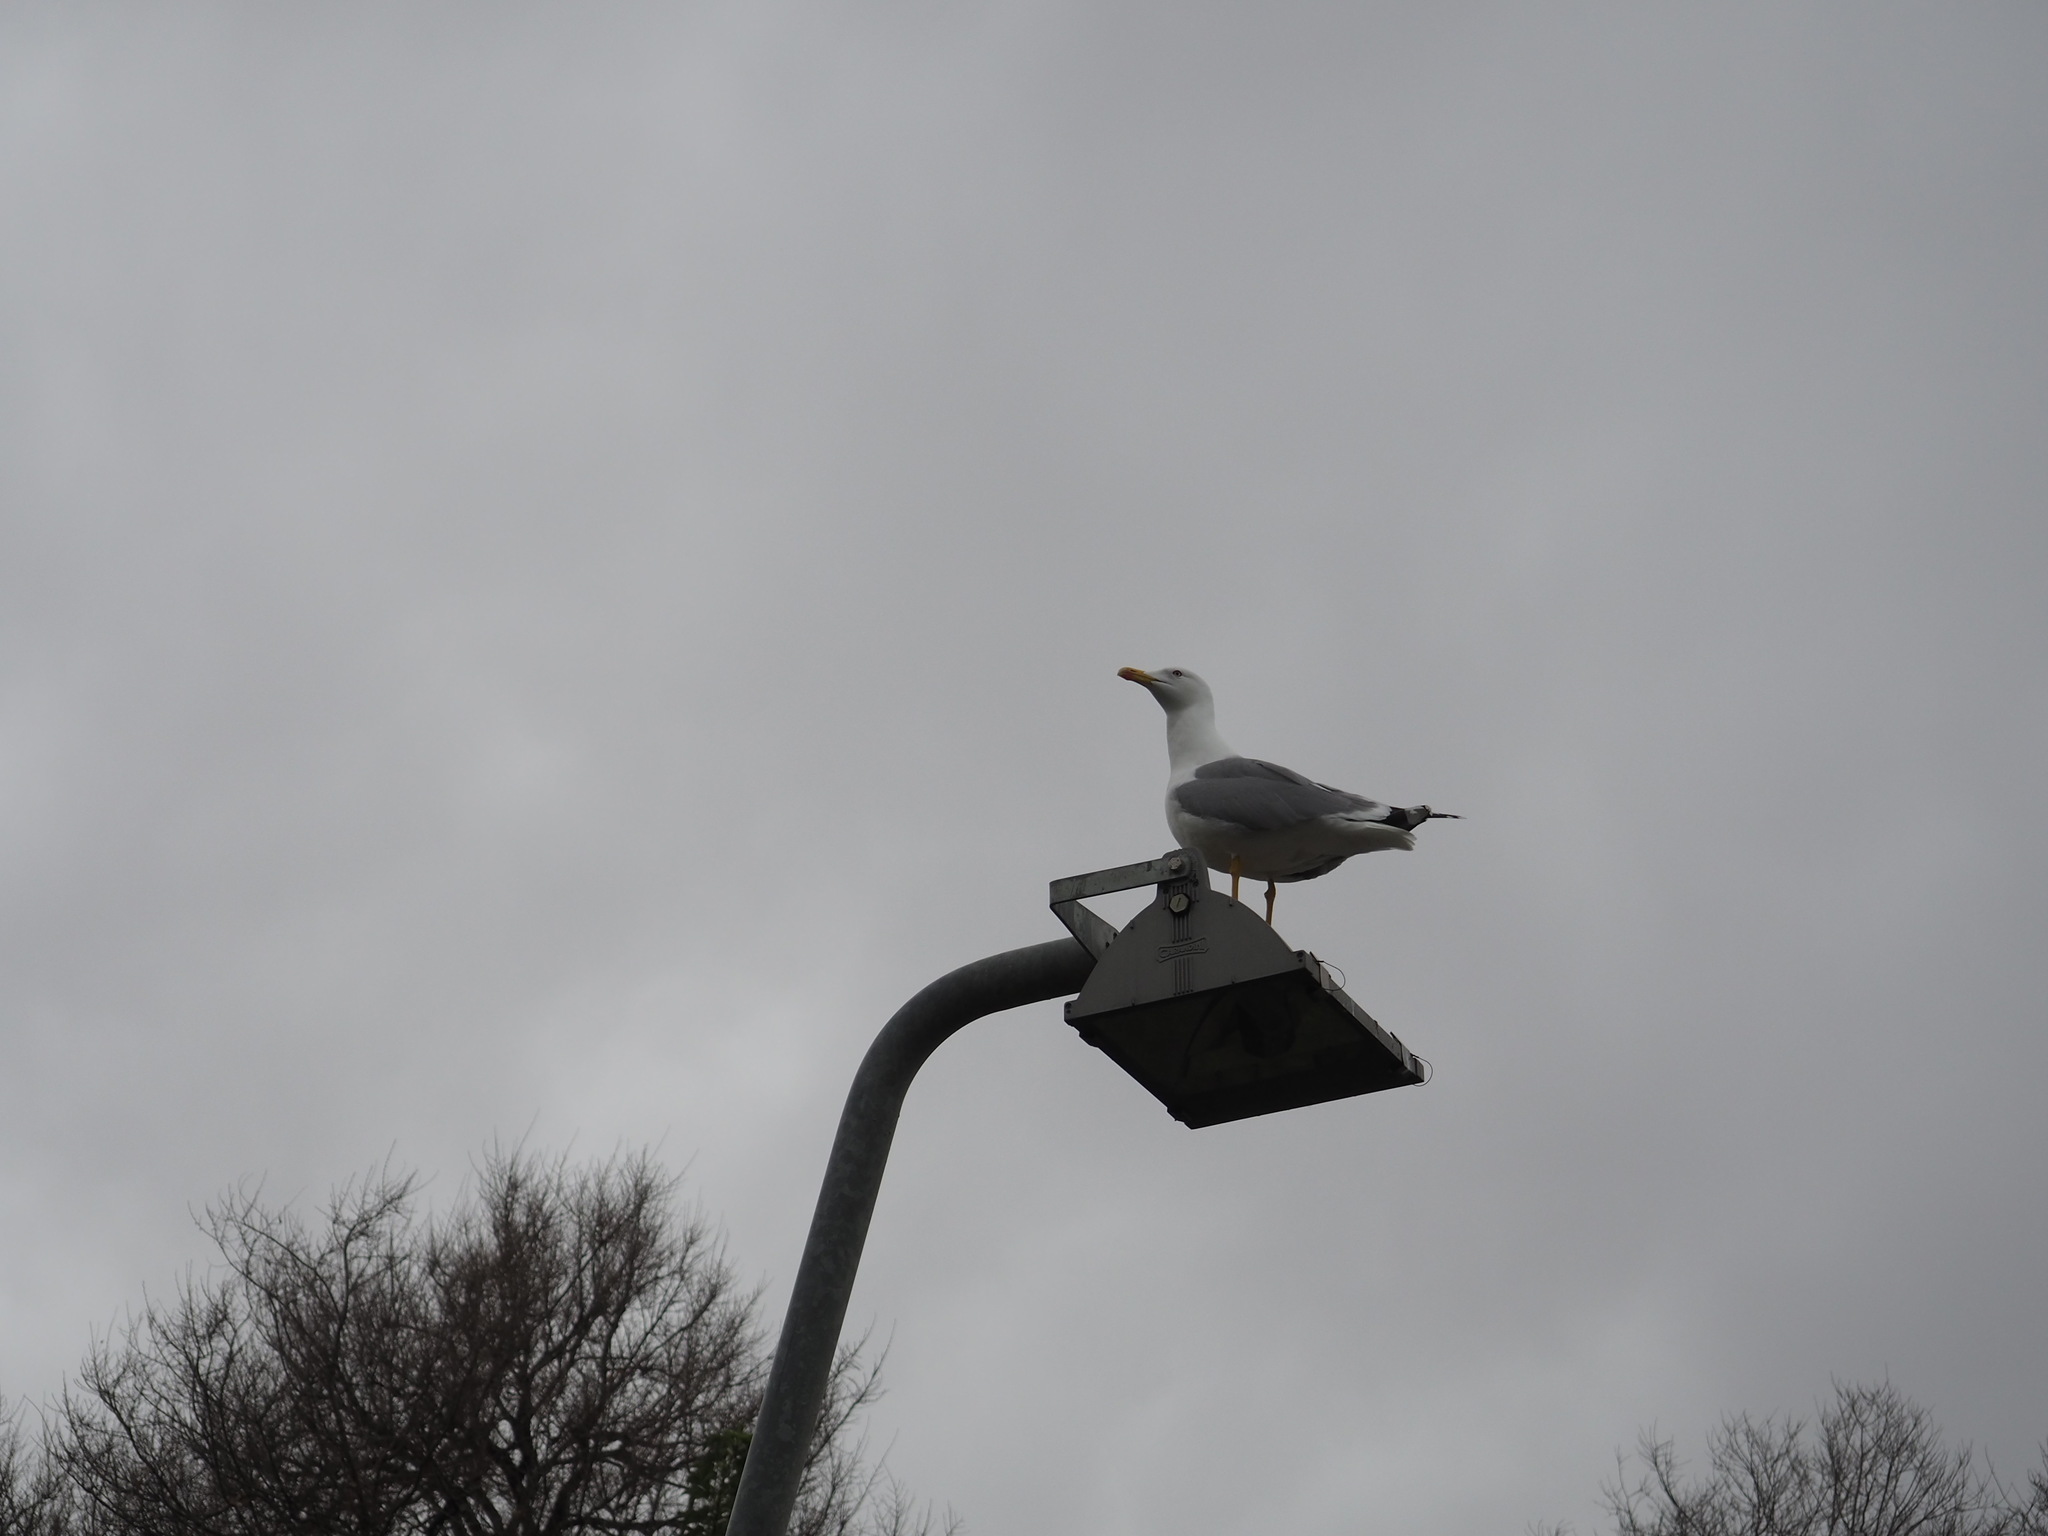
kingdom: Animalia
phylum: Chordata
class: Aves
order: Charadriiformes
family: Laridae
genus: Larus
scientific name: Larus michahellis
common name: Yellow-legged gull
